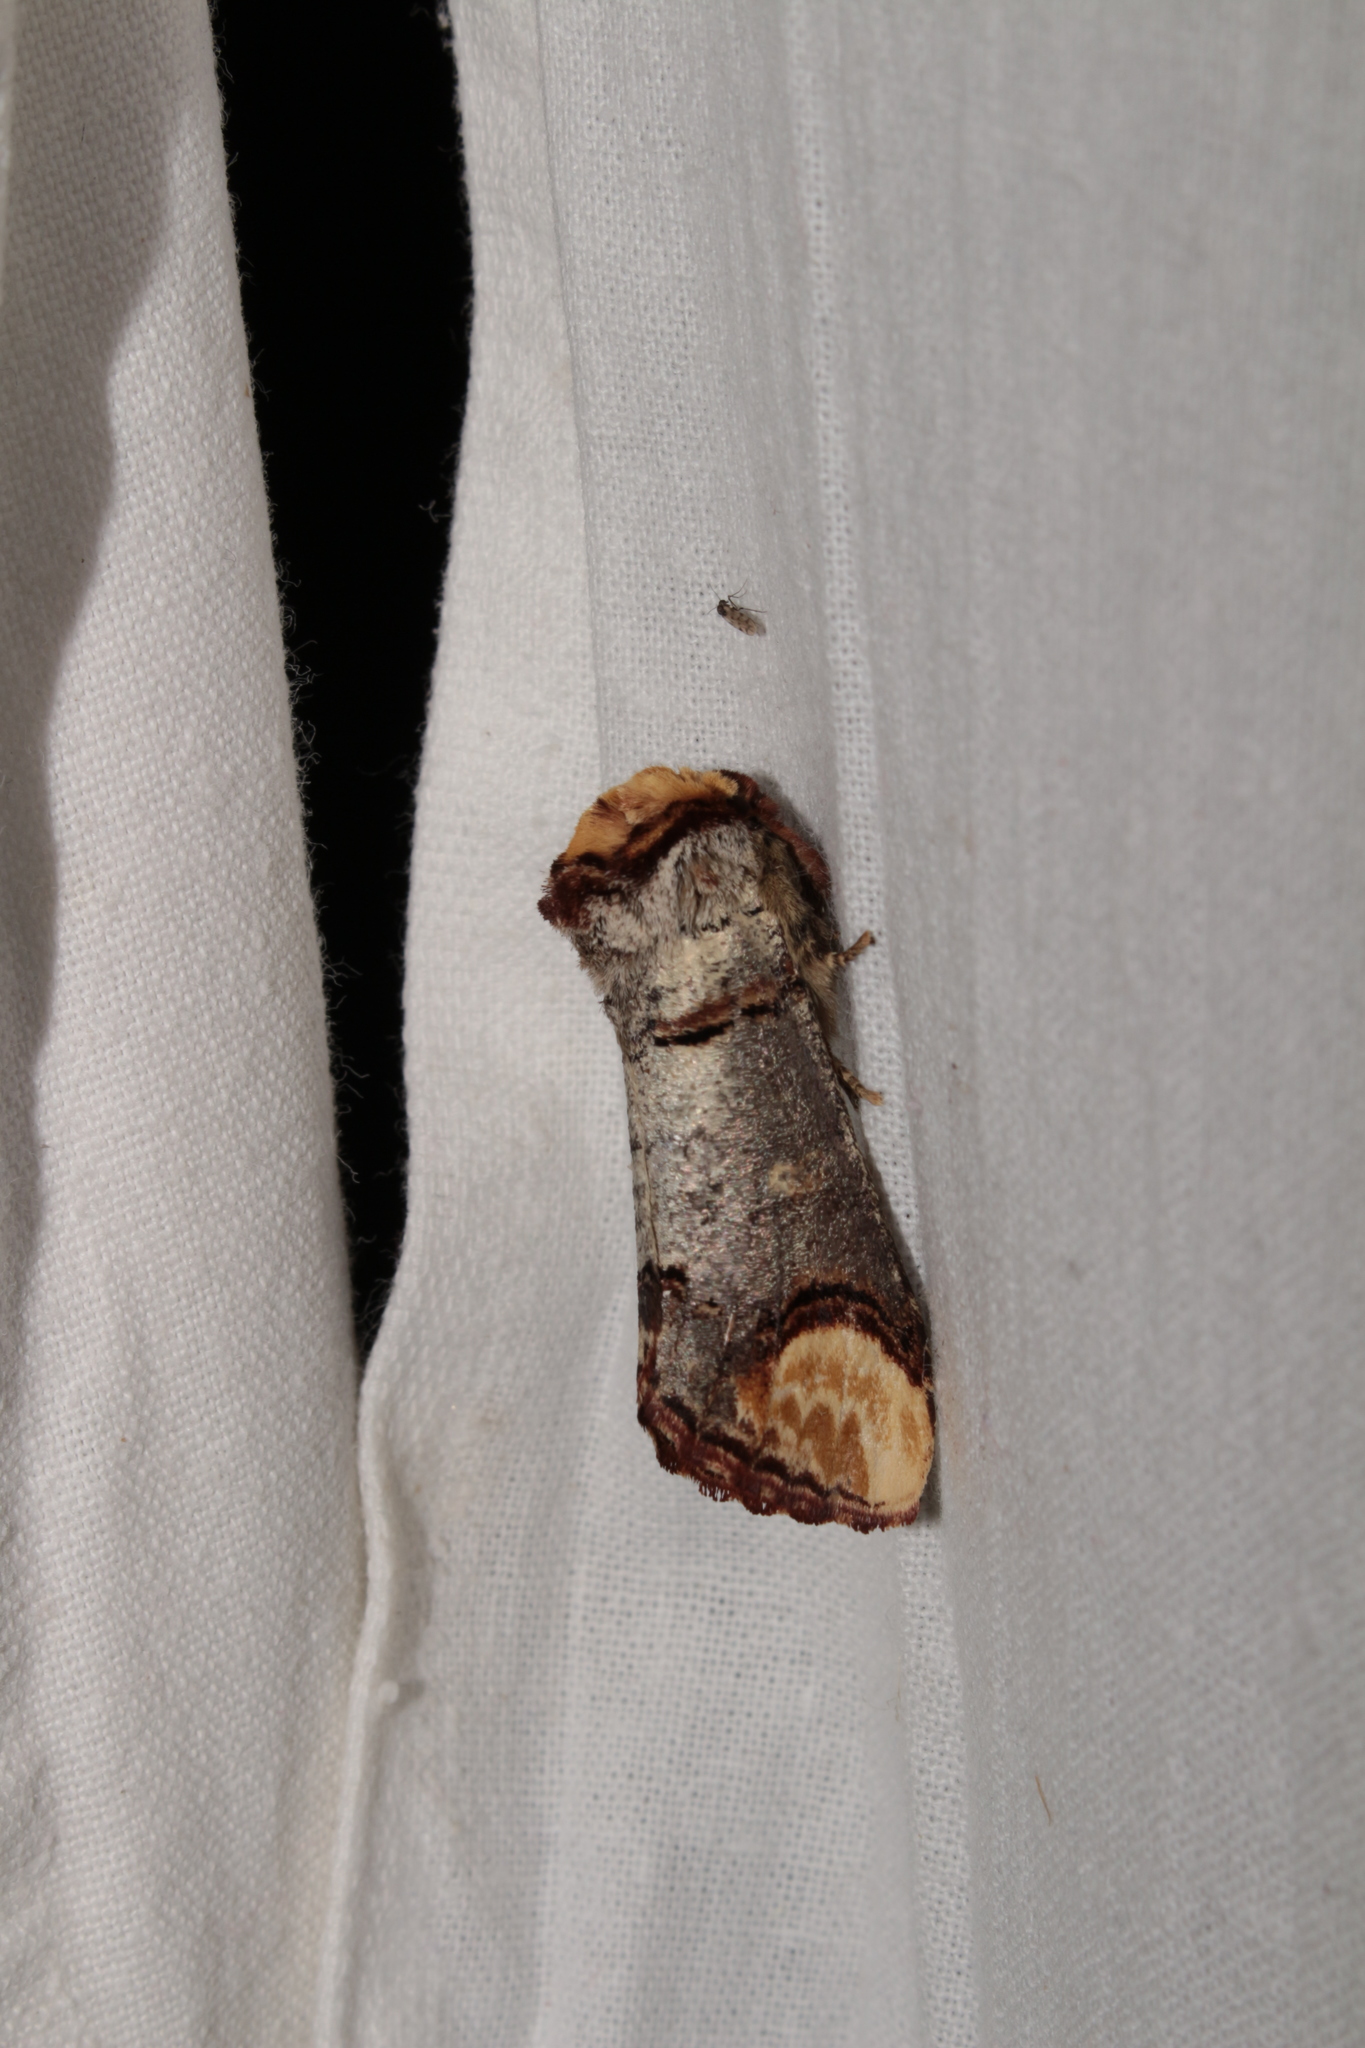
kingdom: Animalia
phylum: Arthropoda
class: Insecta
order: Lepidoptera
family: Notodontidae
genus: Phalera
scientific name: Phalera bucephala
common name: Buff-tip
